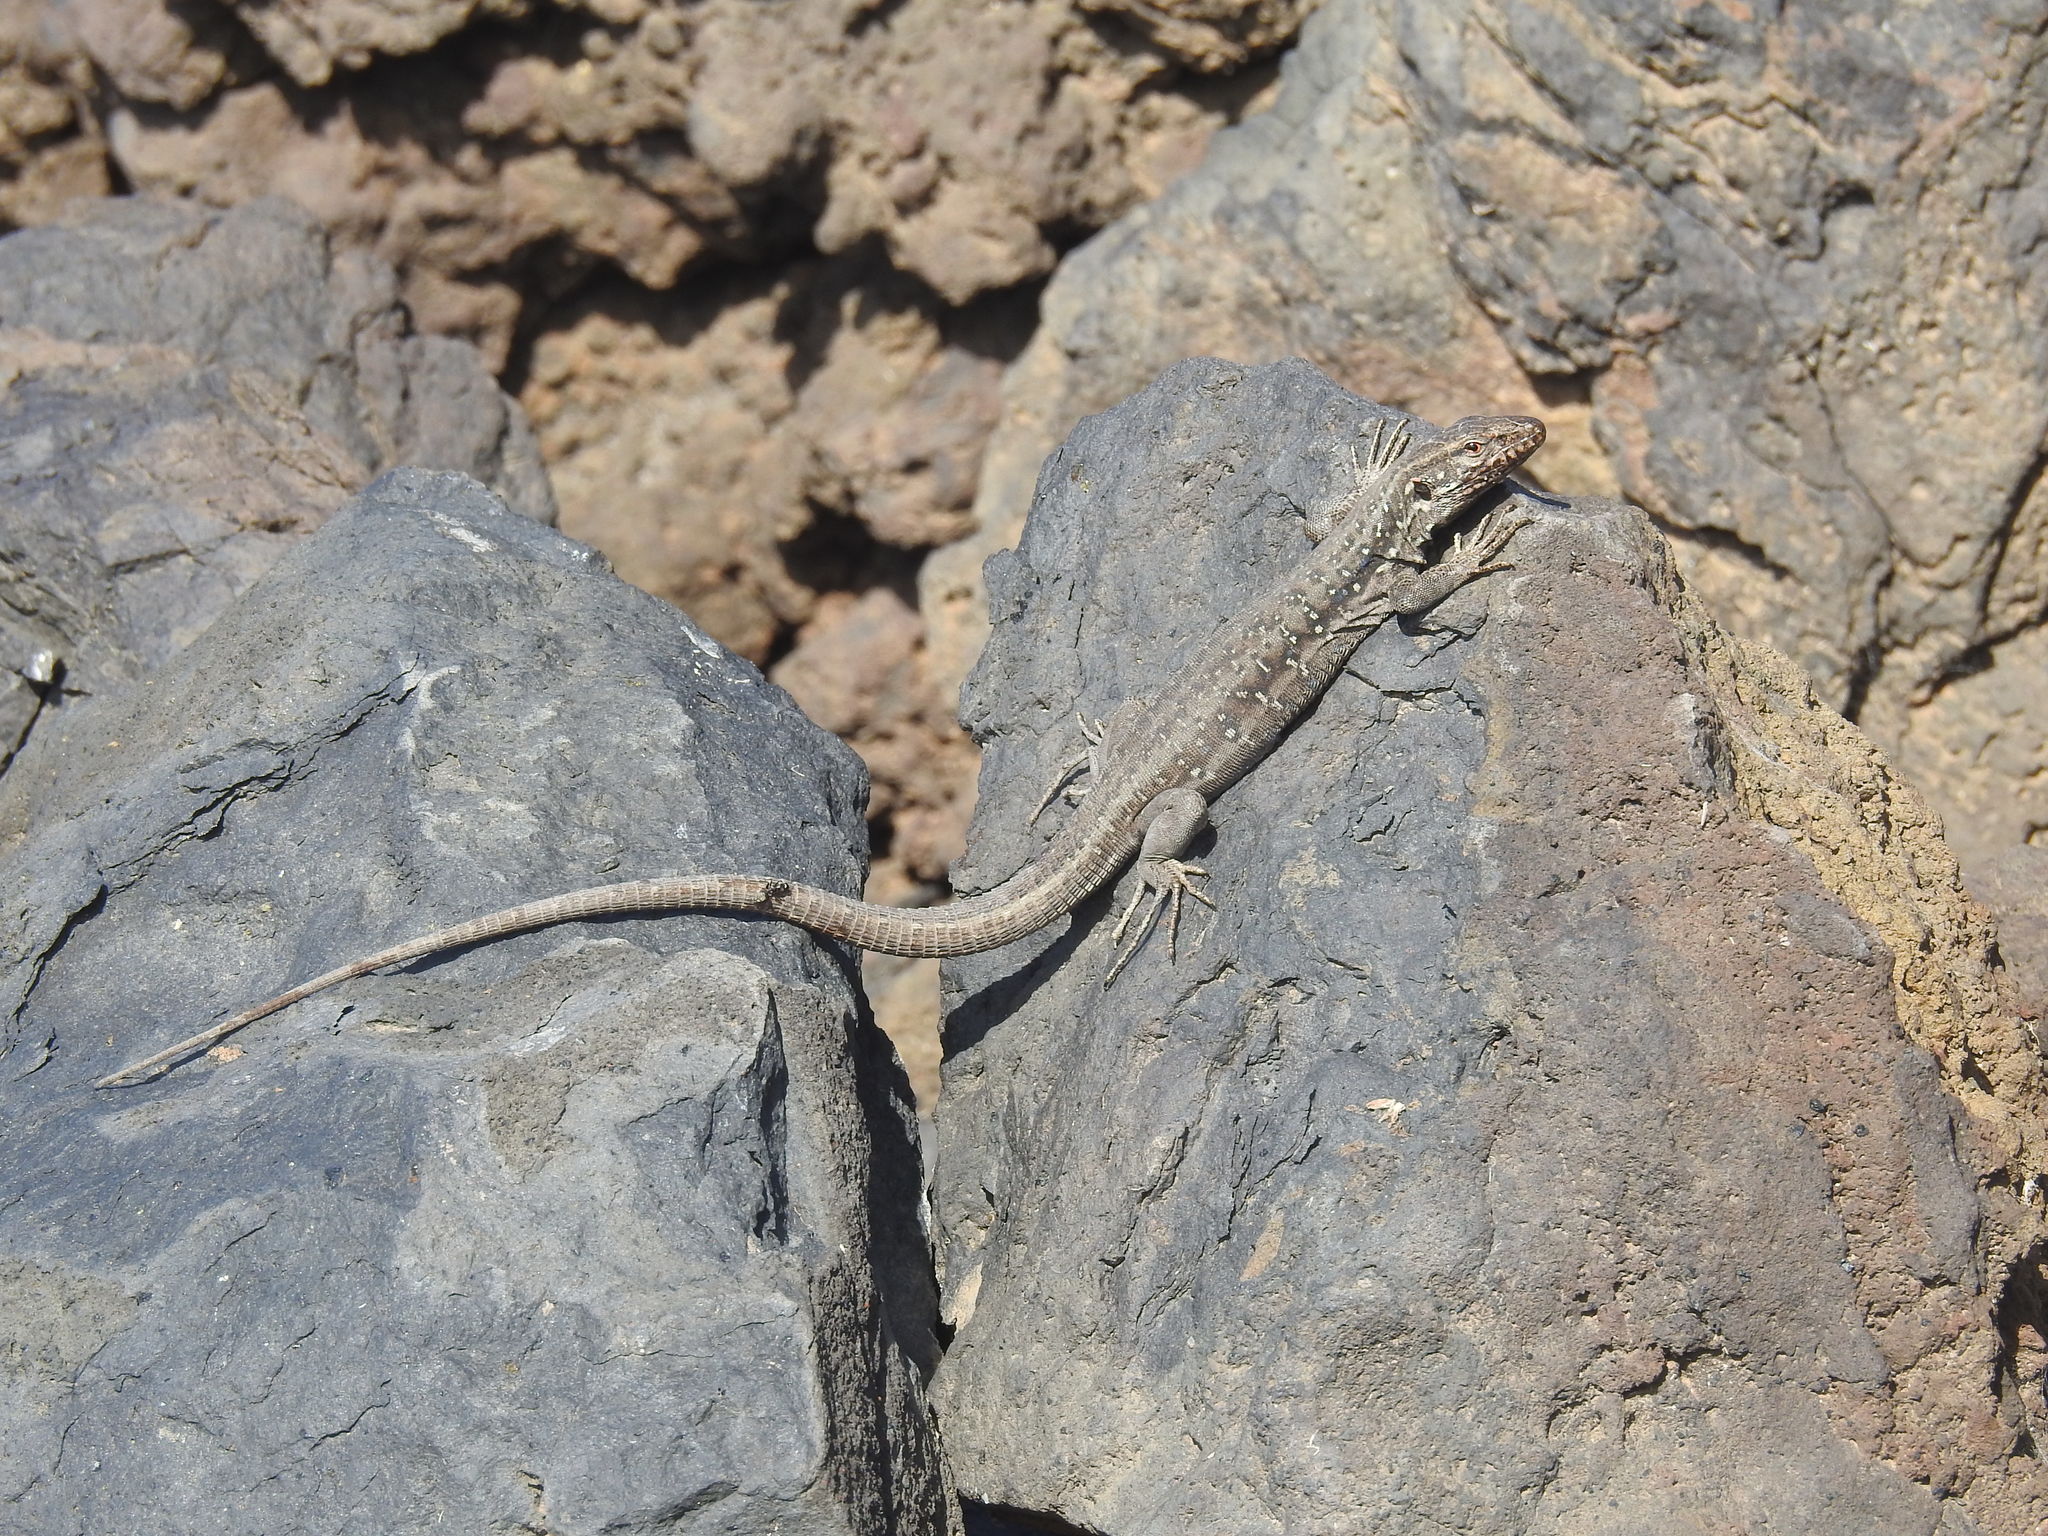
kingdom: Animalia
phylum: Chordata
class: Squamata
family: Lacertidae
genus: Gallotia
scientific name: Gallotia galloti
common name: Gallot's lizard
